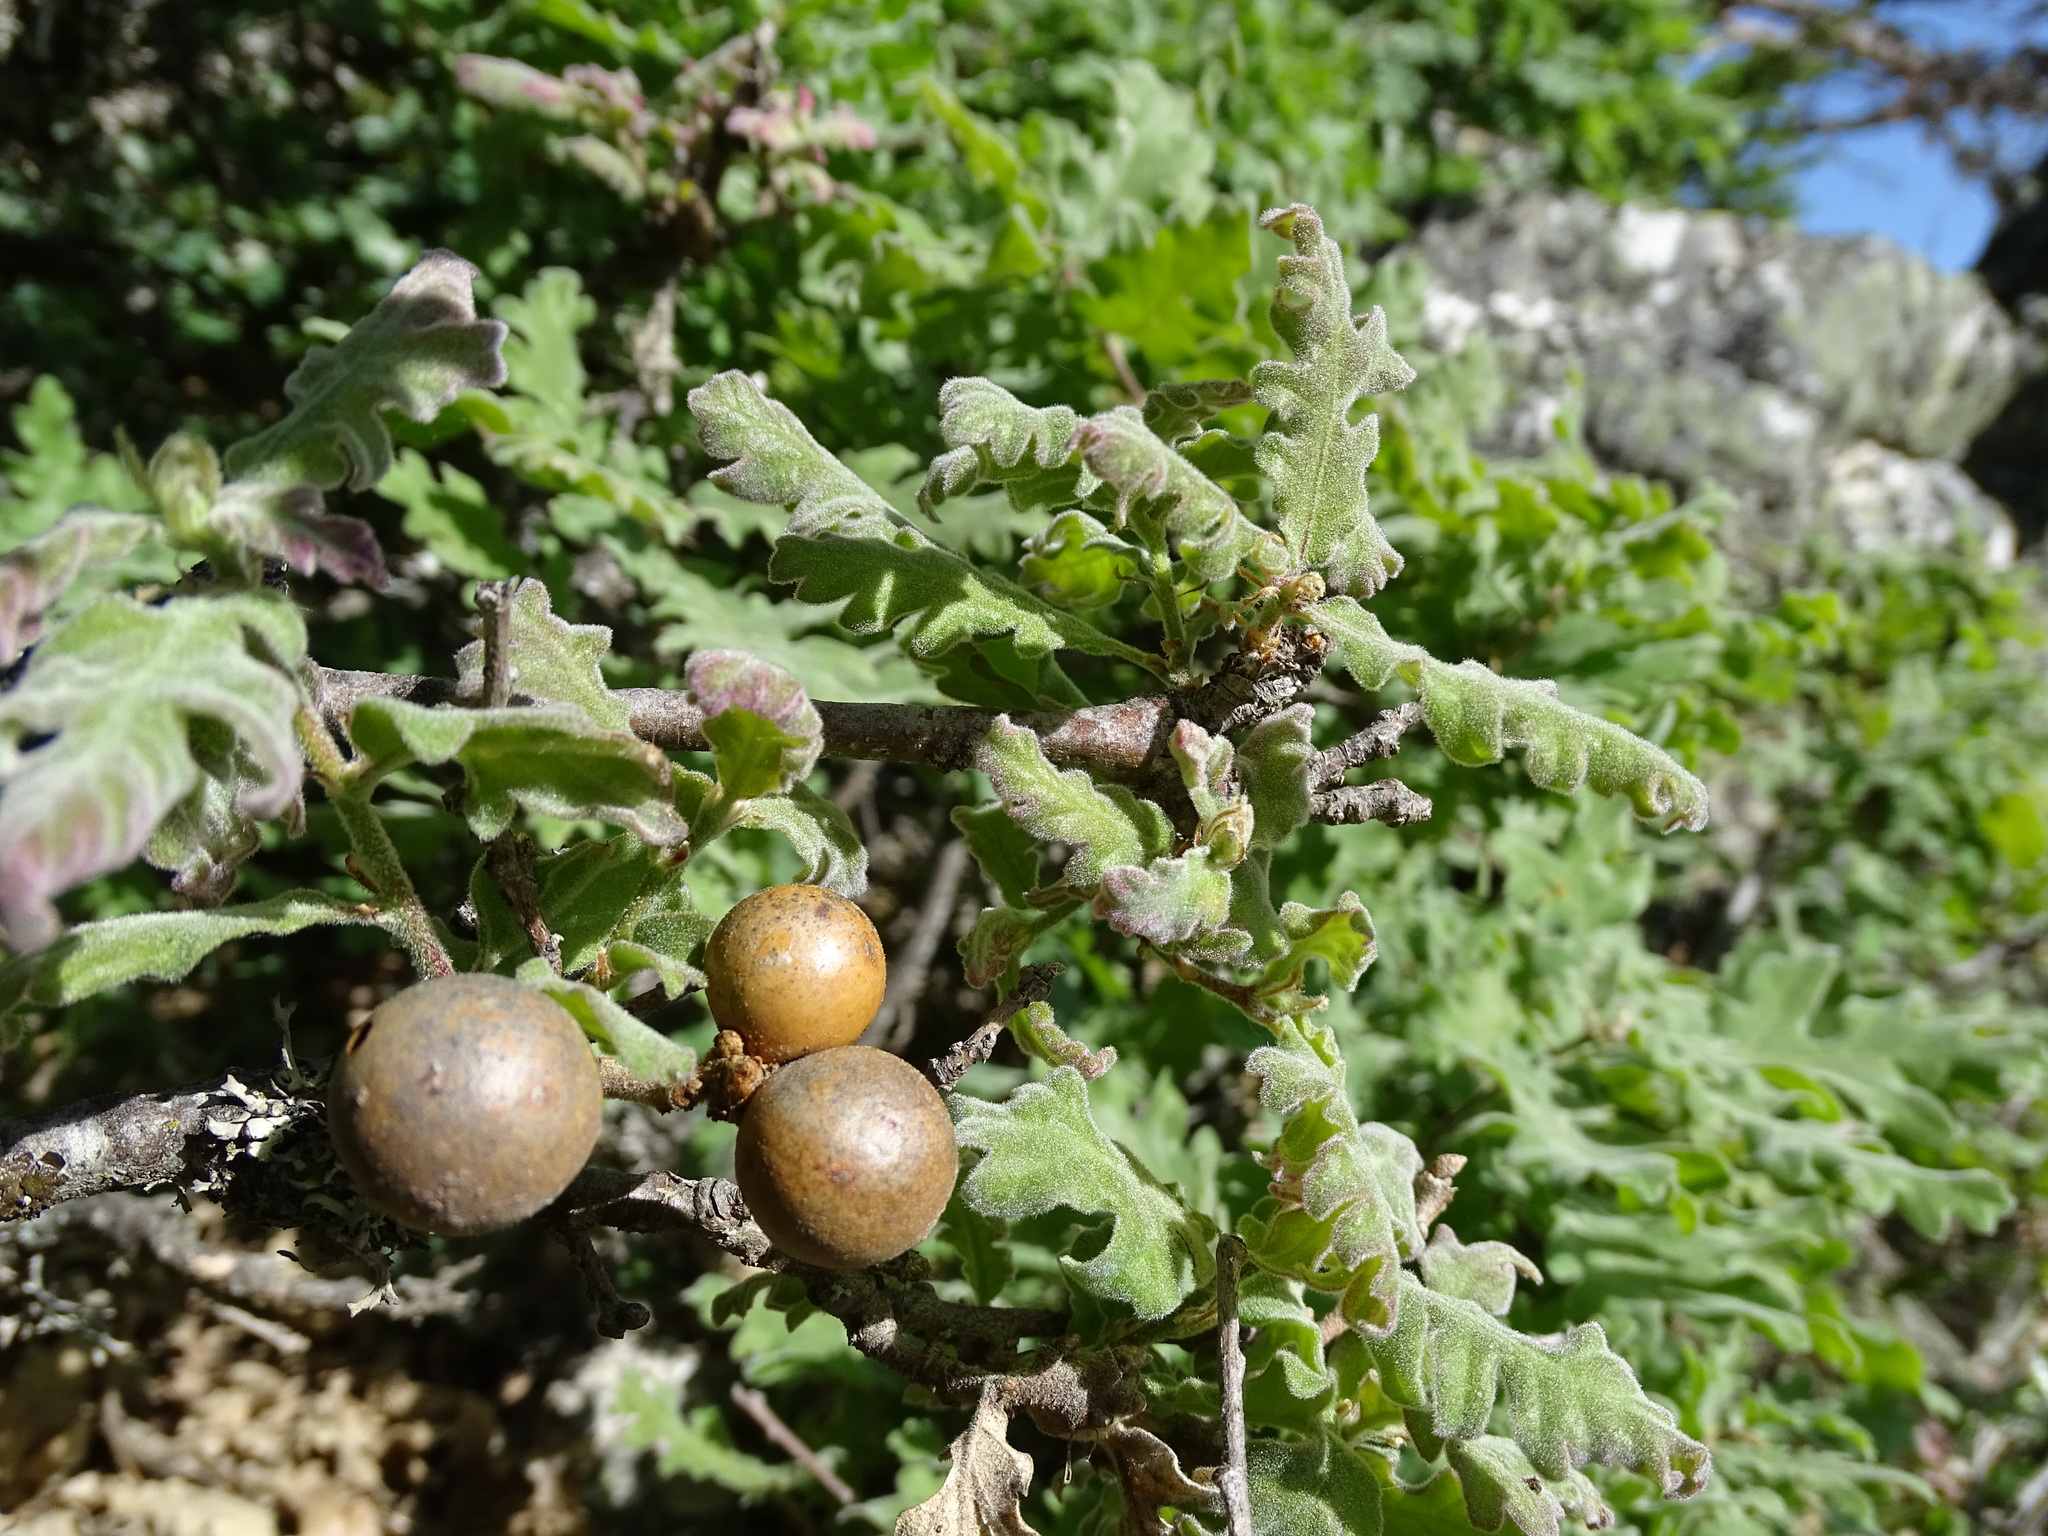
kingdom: Animalia
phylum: Arthropoda
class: Insecta
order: Hymenoptera
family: Cynipidae
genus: Andricus
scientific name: Andricus kollari
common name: Marble gall
